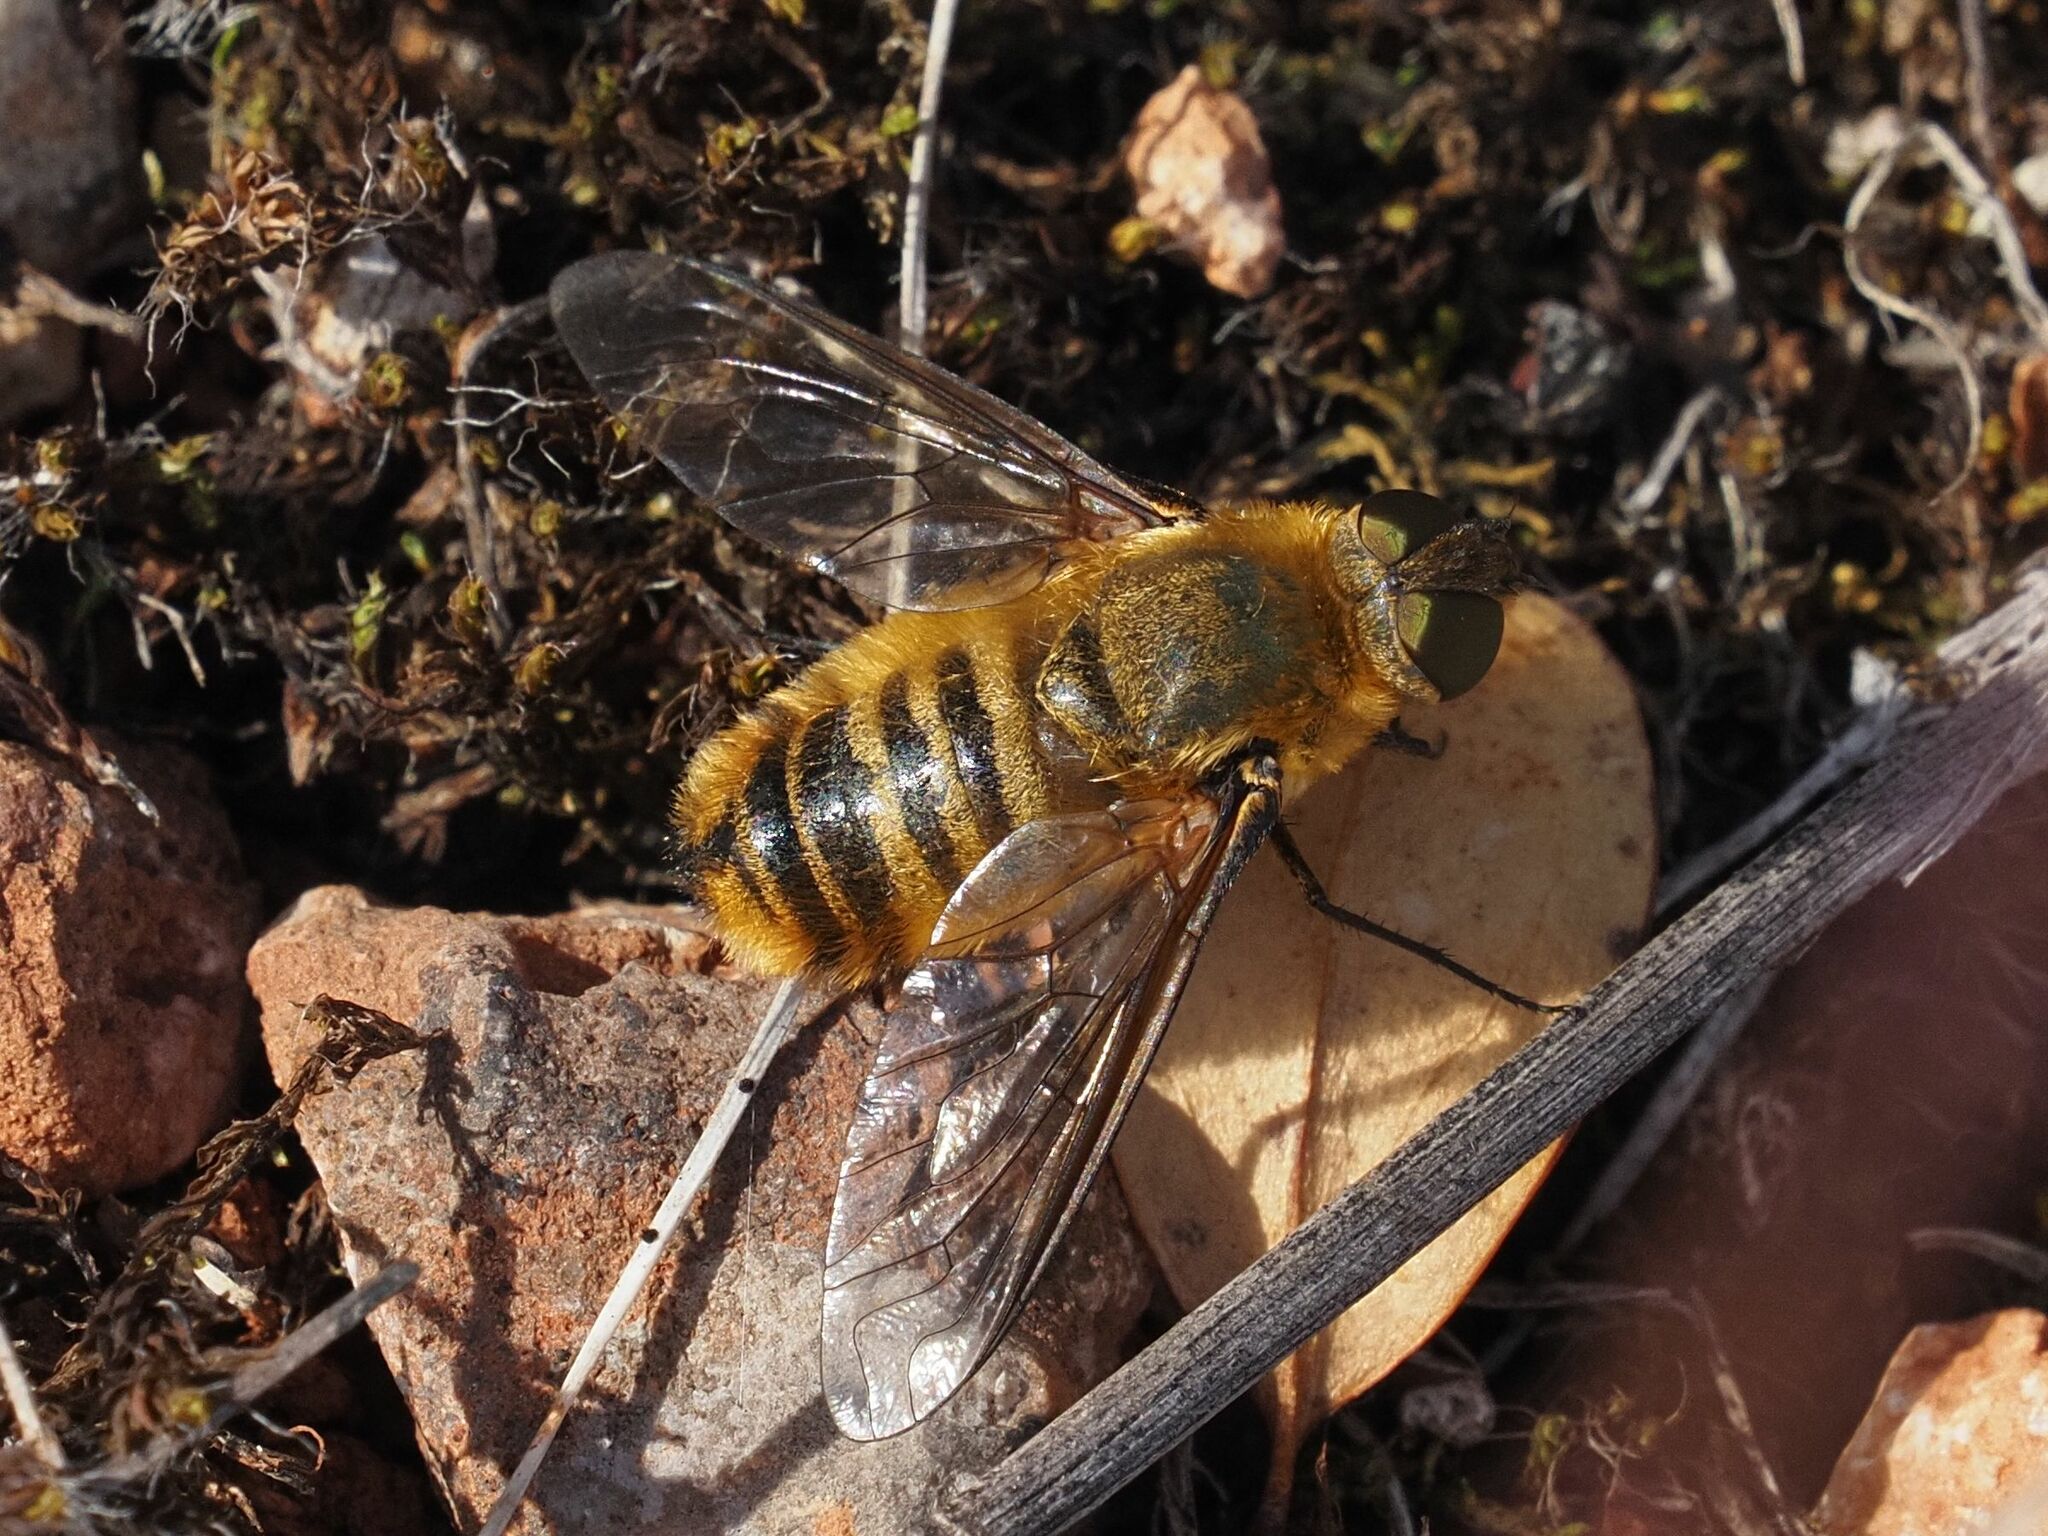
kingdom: Animalia
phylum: Arthropoda
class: Insecta
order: Diptera
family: Bombyliidae
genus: Villa
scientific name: Villa hottentotta
